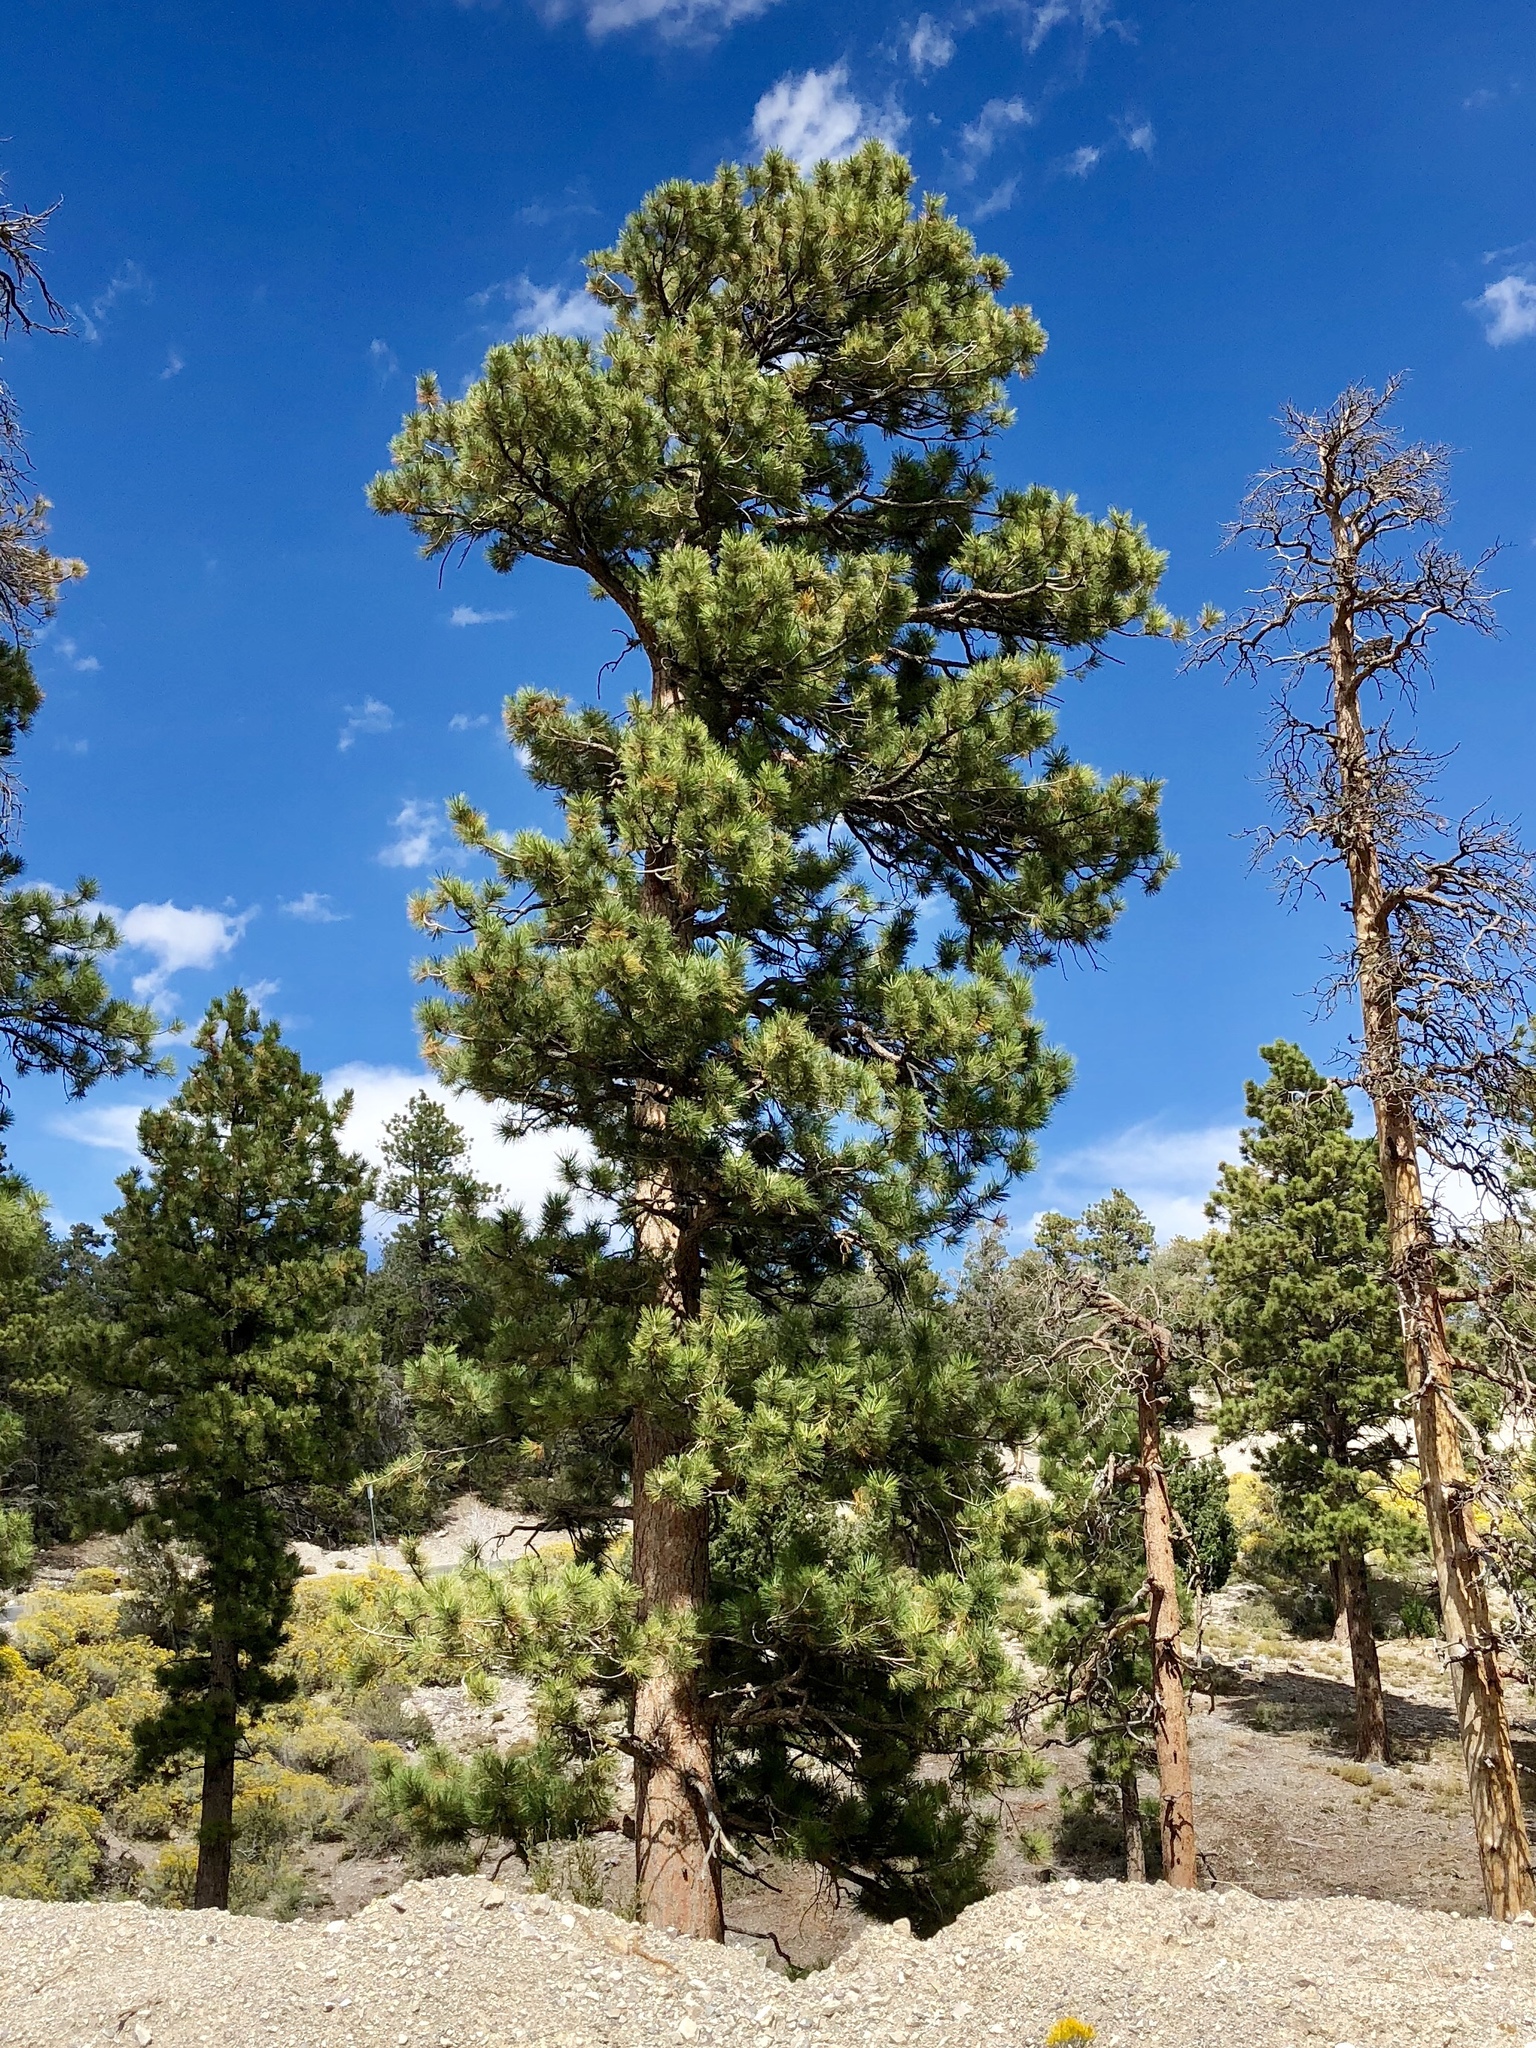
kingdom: Plantae
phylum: Tracheophyta
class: Pinopsida
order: Pinales
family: Pinaceae
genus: Pinus
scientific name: Pinus ponderosa
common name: Western yellow-pine
